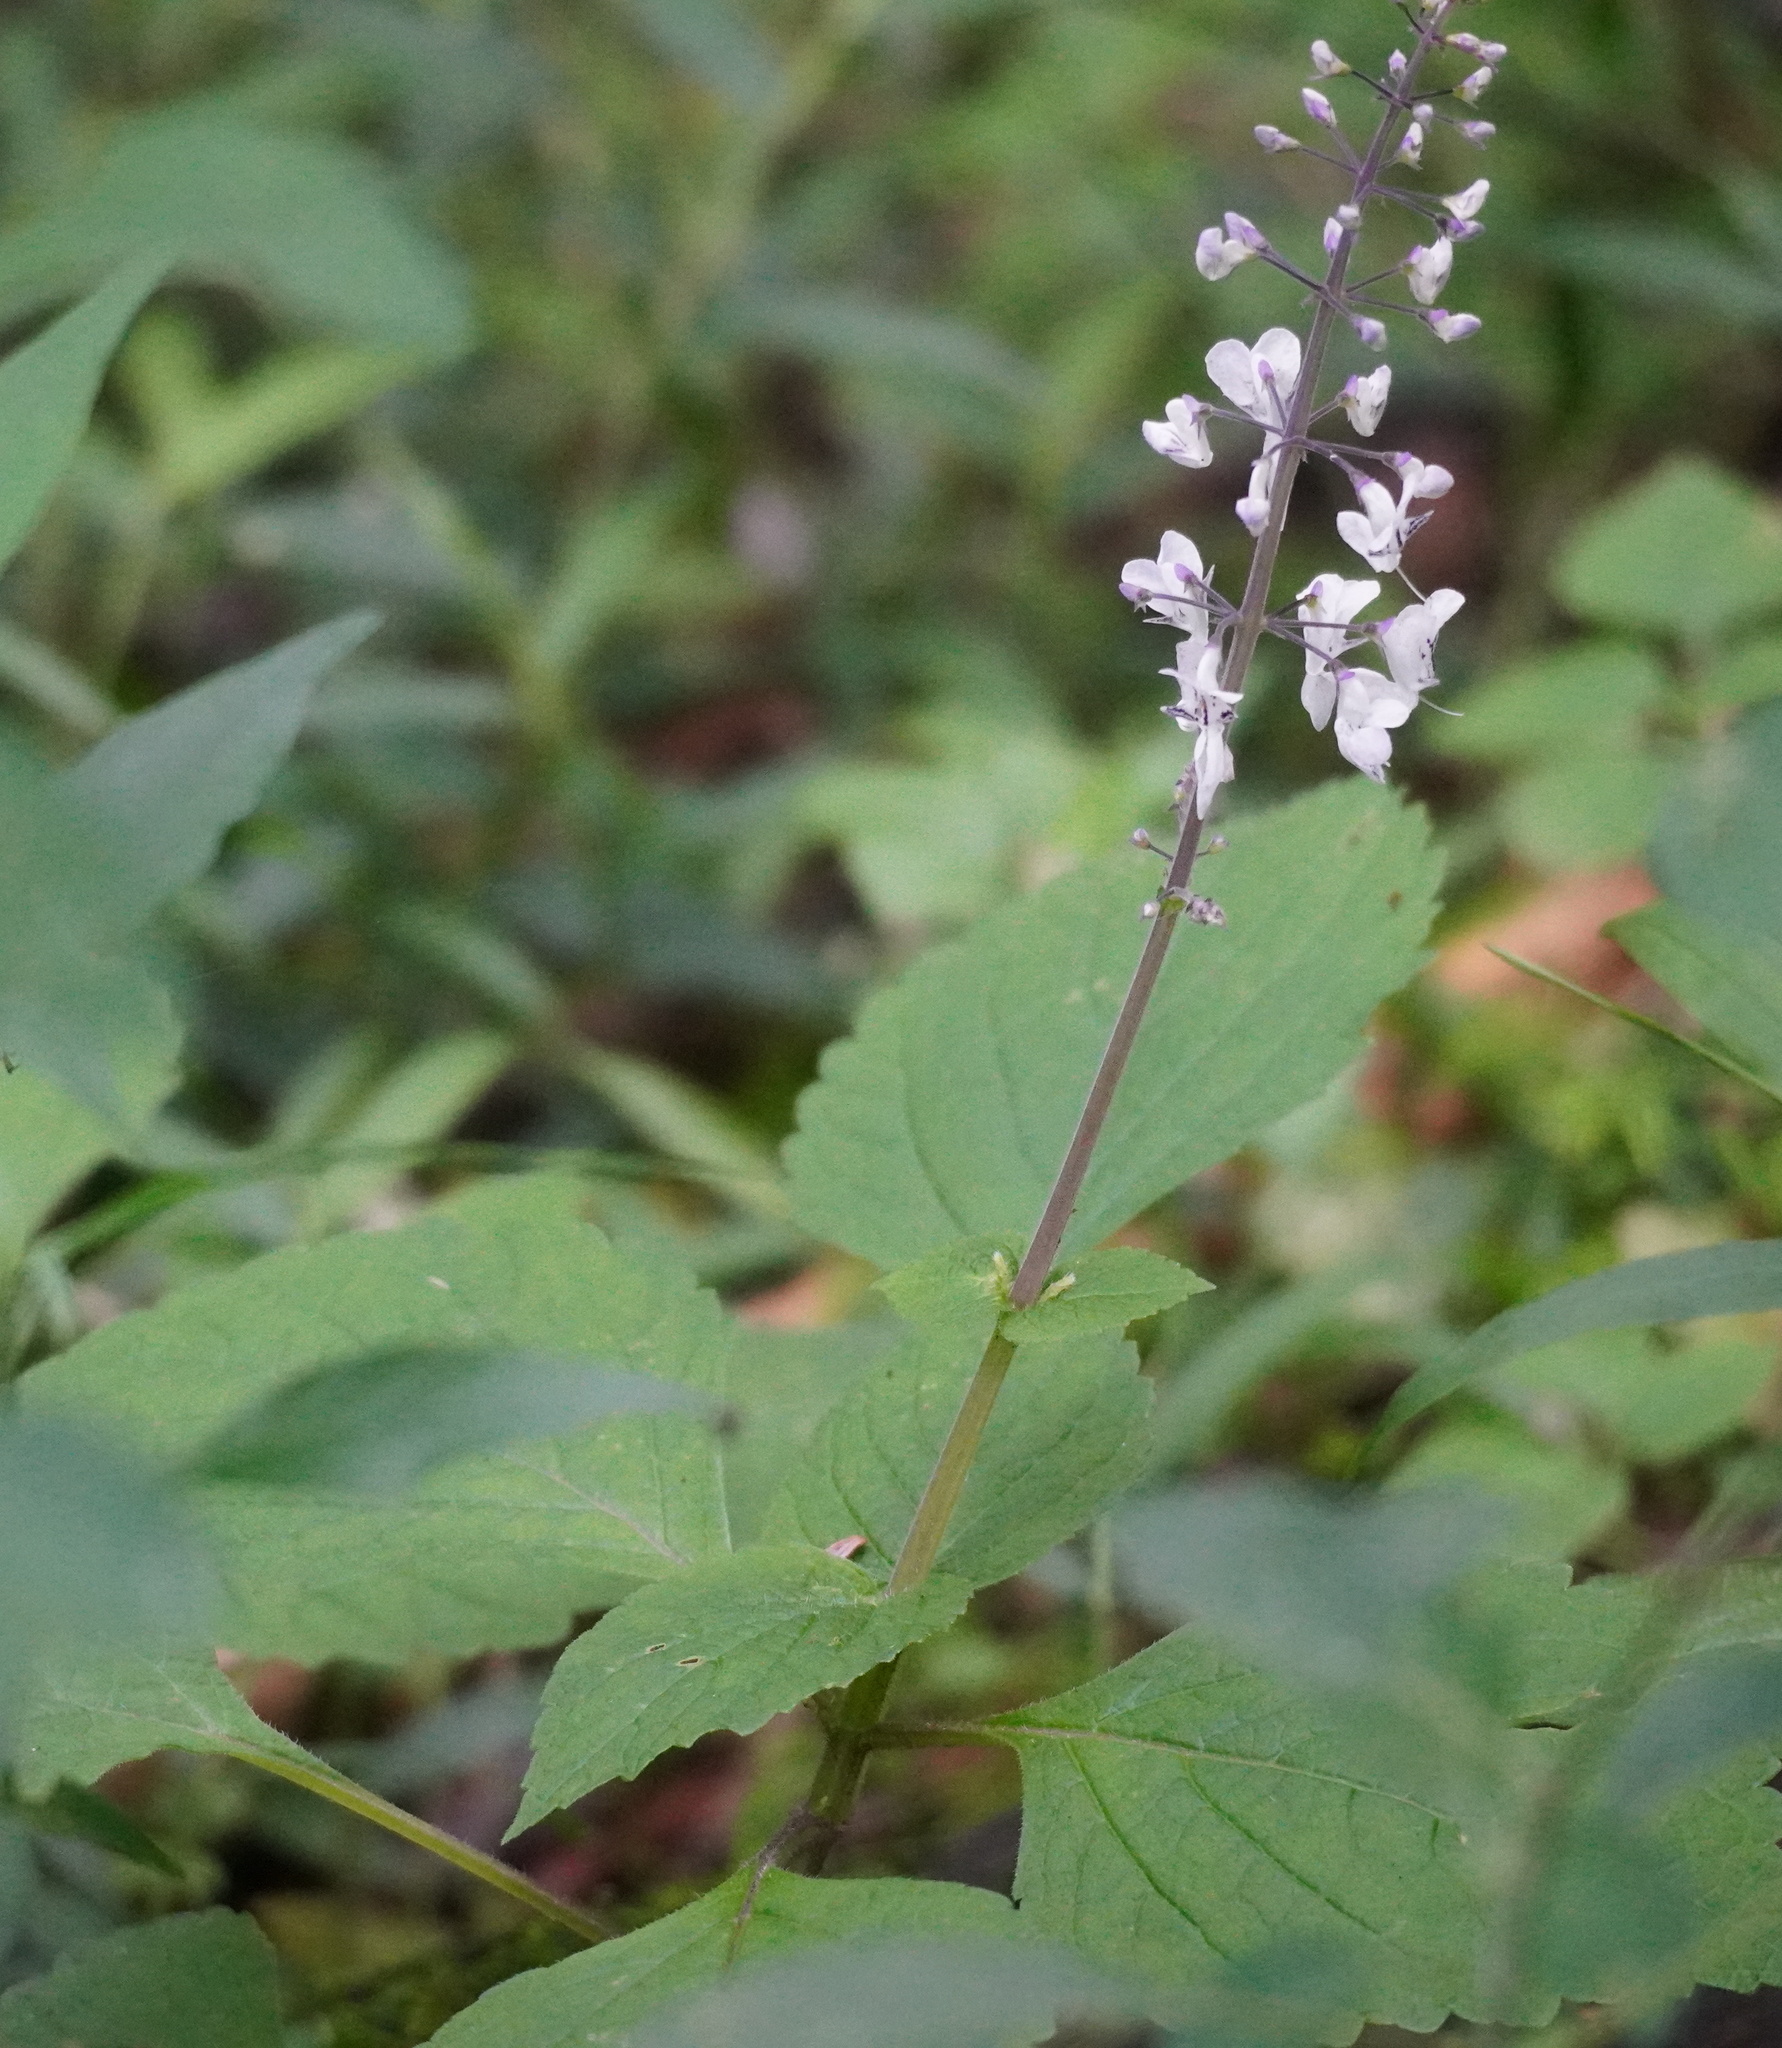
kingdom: Plantae
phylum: Tracheophyta
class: Magnoliopsida
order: Lamiales
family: Lamiaceae
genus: Plectranthus
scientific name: Plectranthus grallatus
